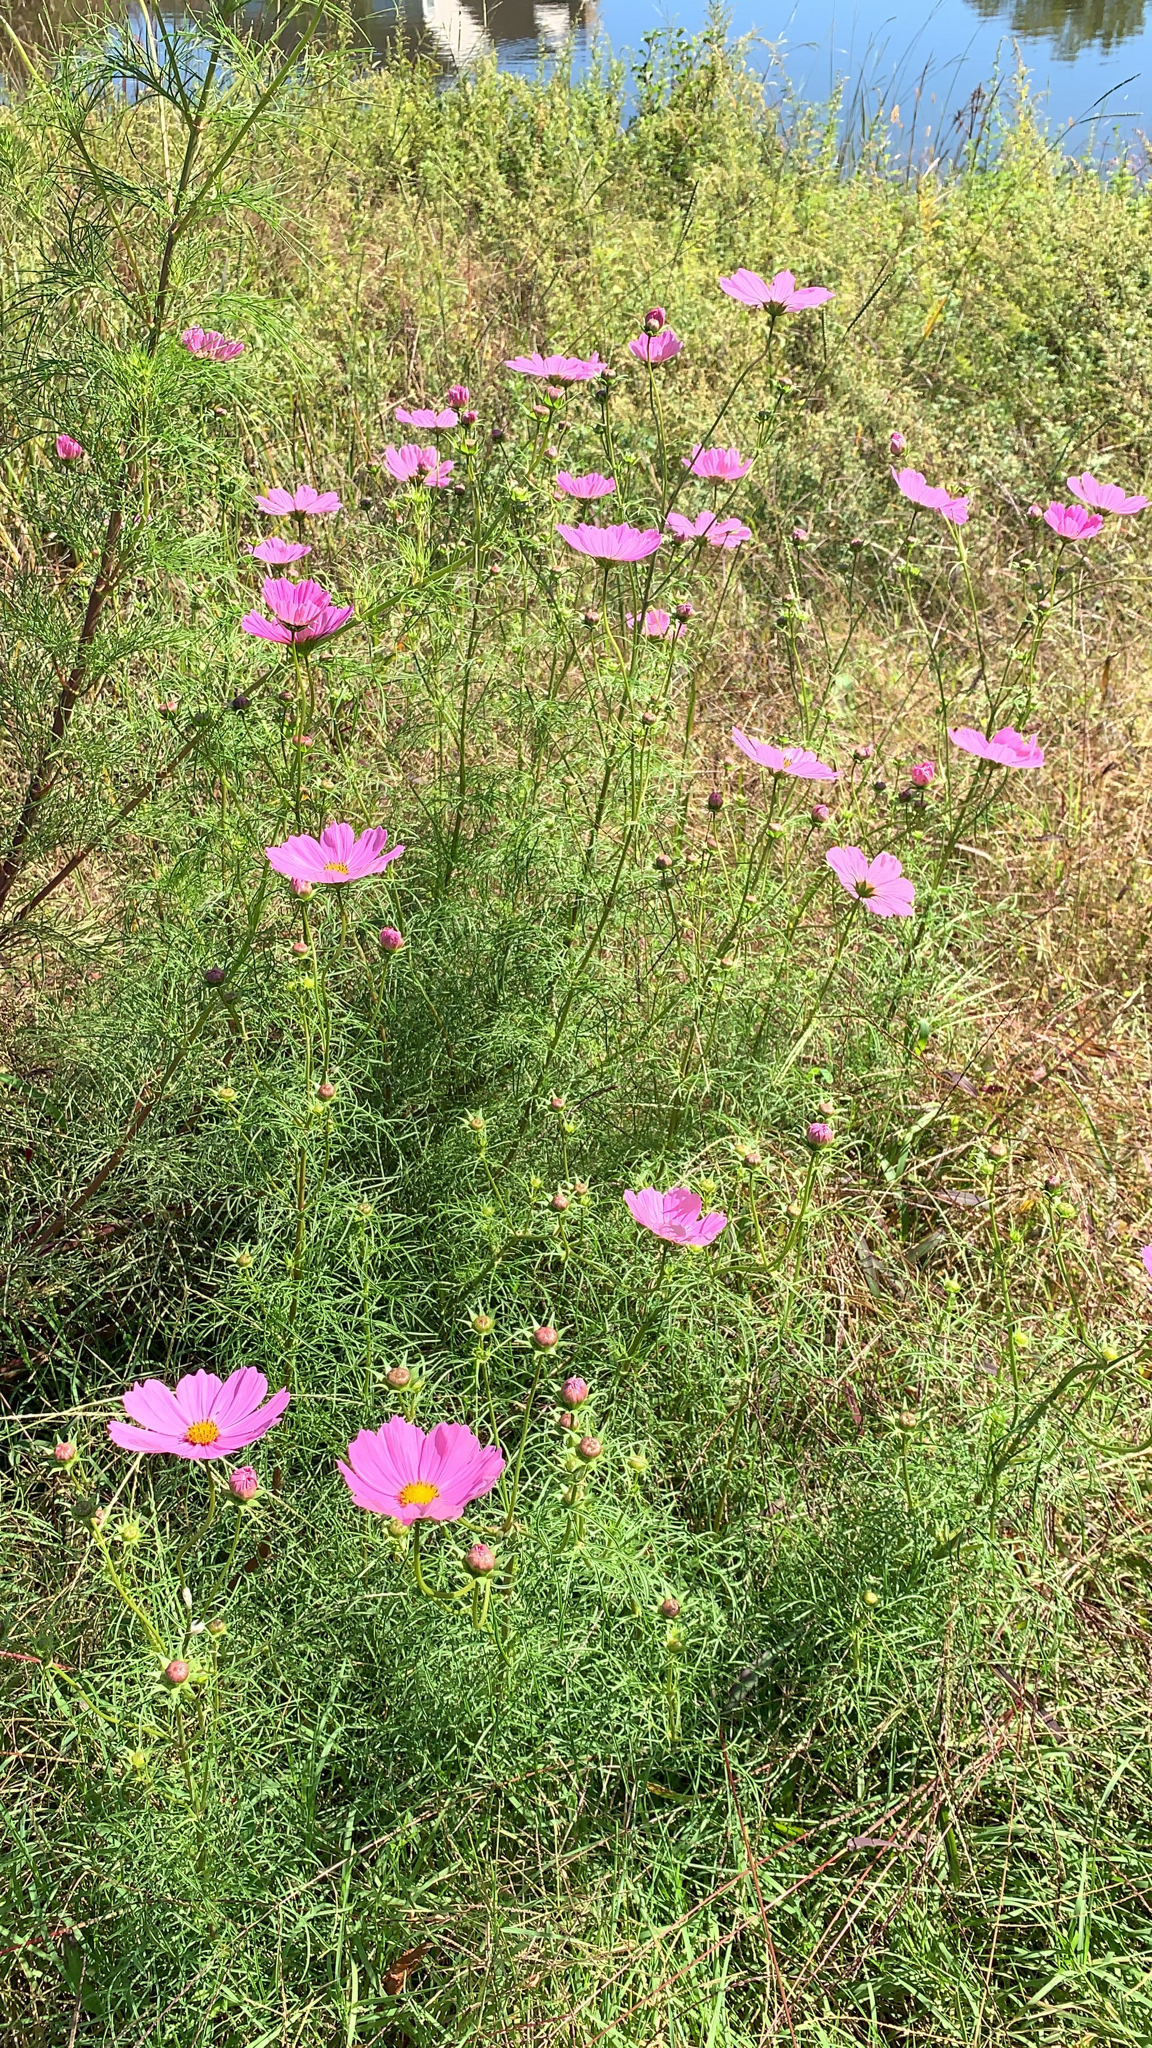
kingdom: Plantae
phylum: Tracheophyta
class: Magnoliopsida
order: Asterales
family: Asteraceae
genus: Cosmos
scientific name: Cosmos bipinnatus
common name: Garden cosmos
